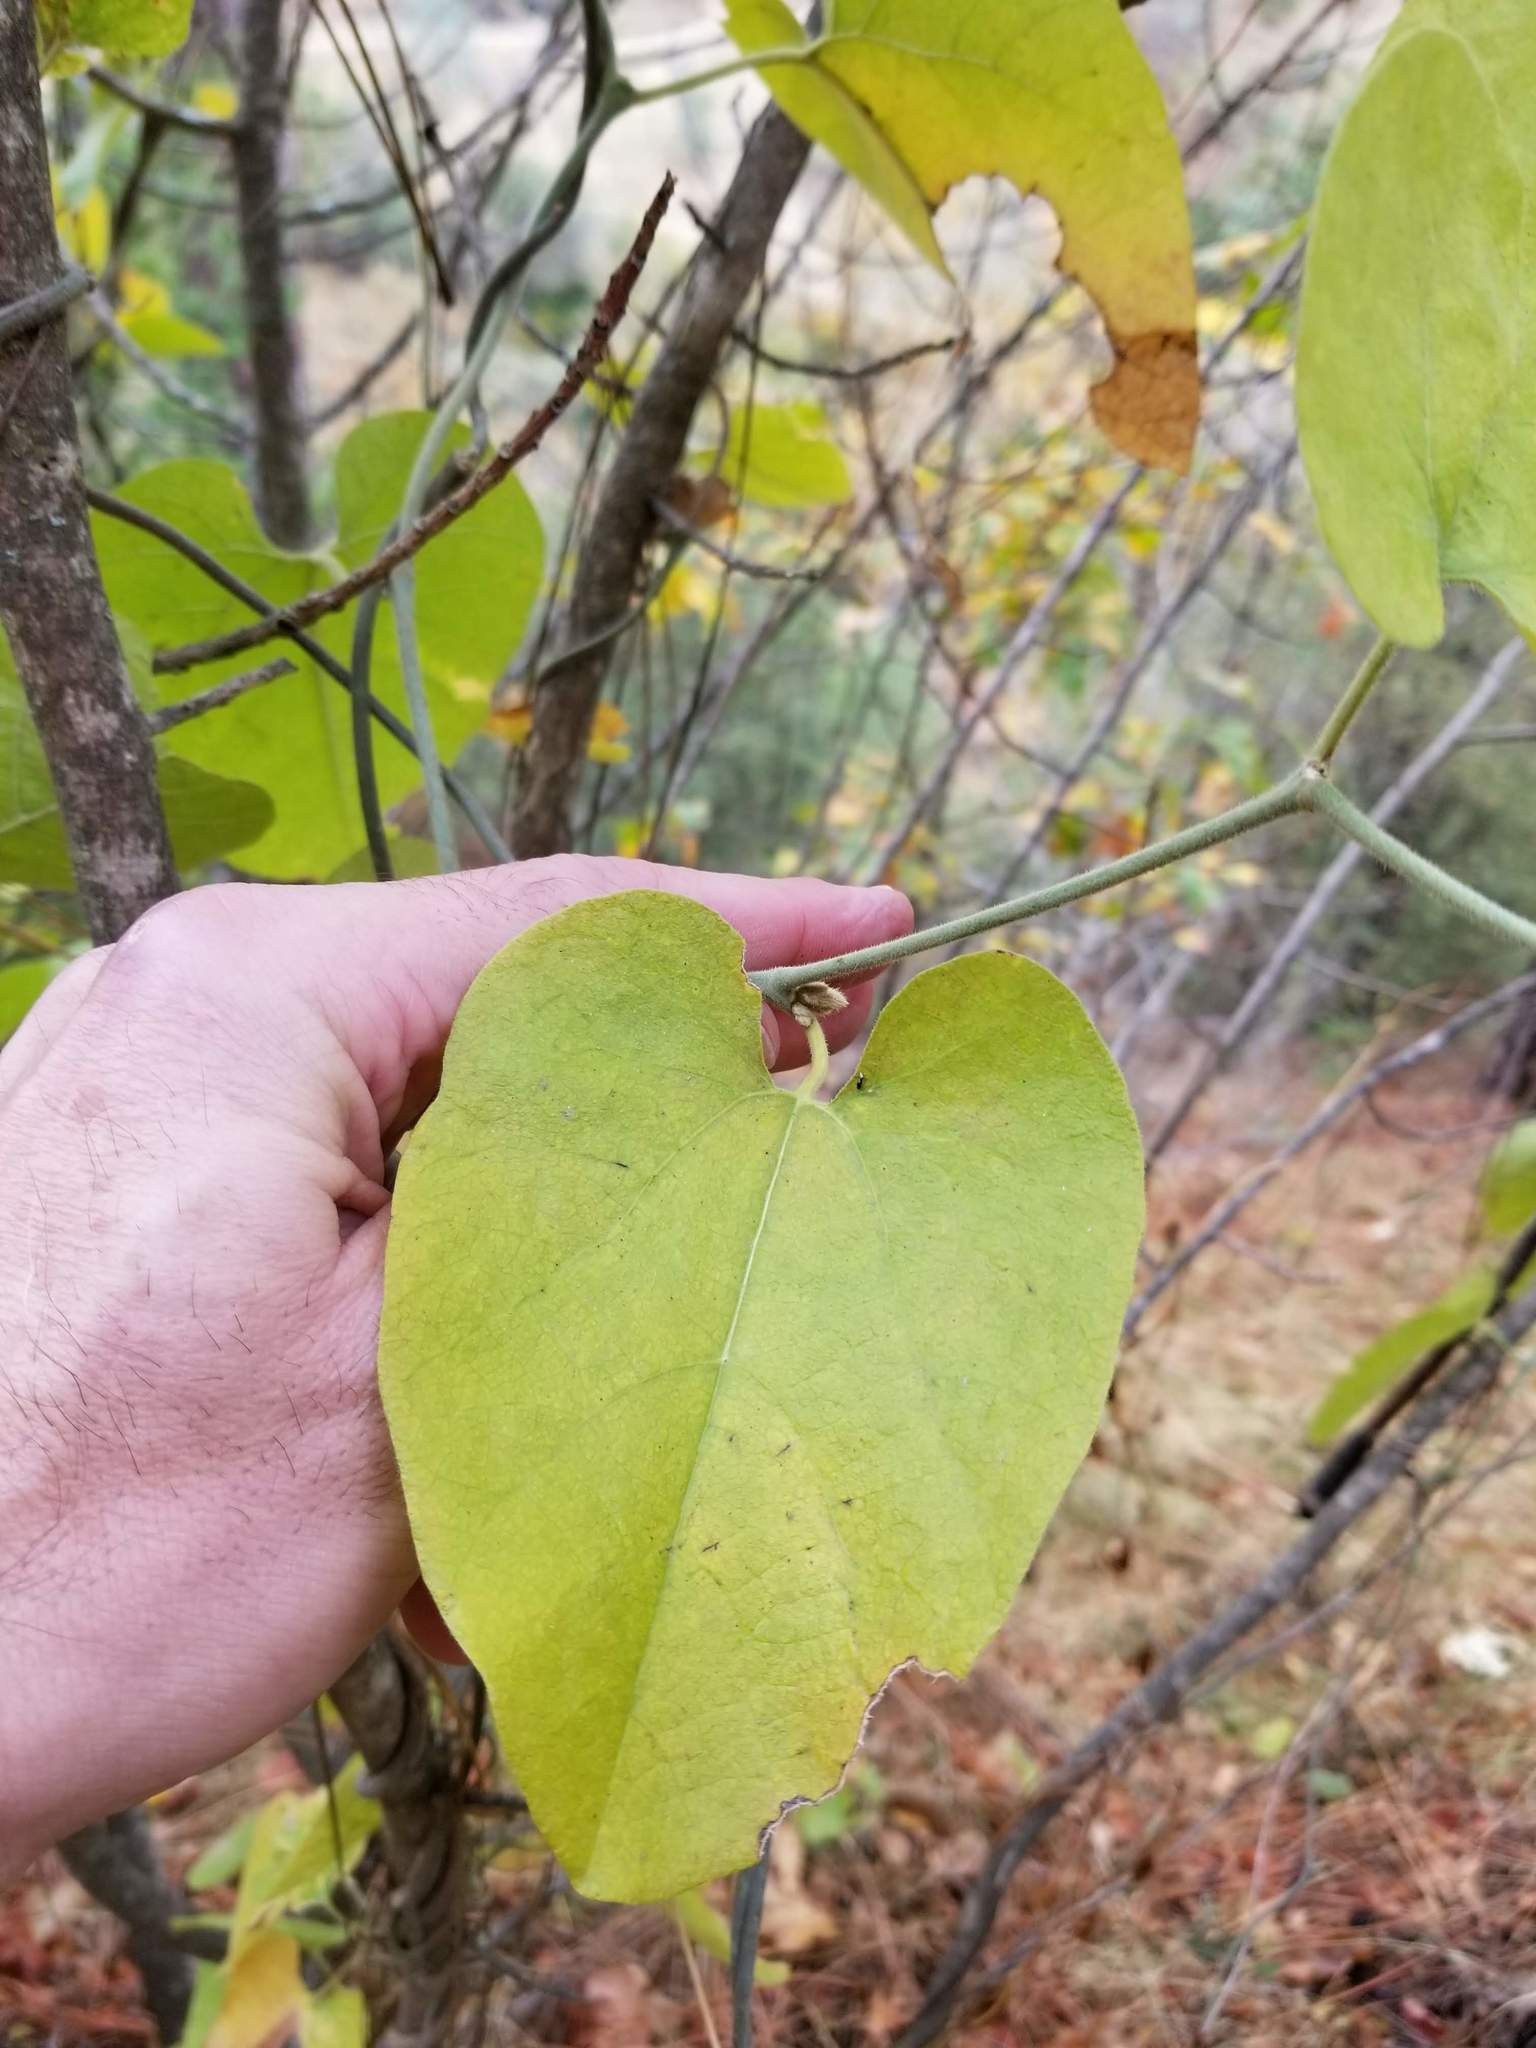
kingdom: Plantae
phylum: Tracheophyta
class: Magnoliopsida
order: Piperales
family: Aristolochiaceae
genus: Isotrema
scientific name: Isotrema californicum
